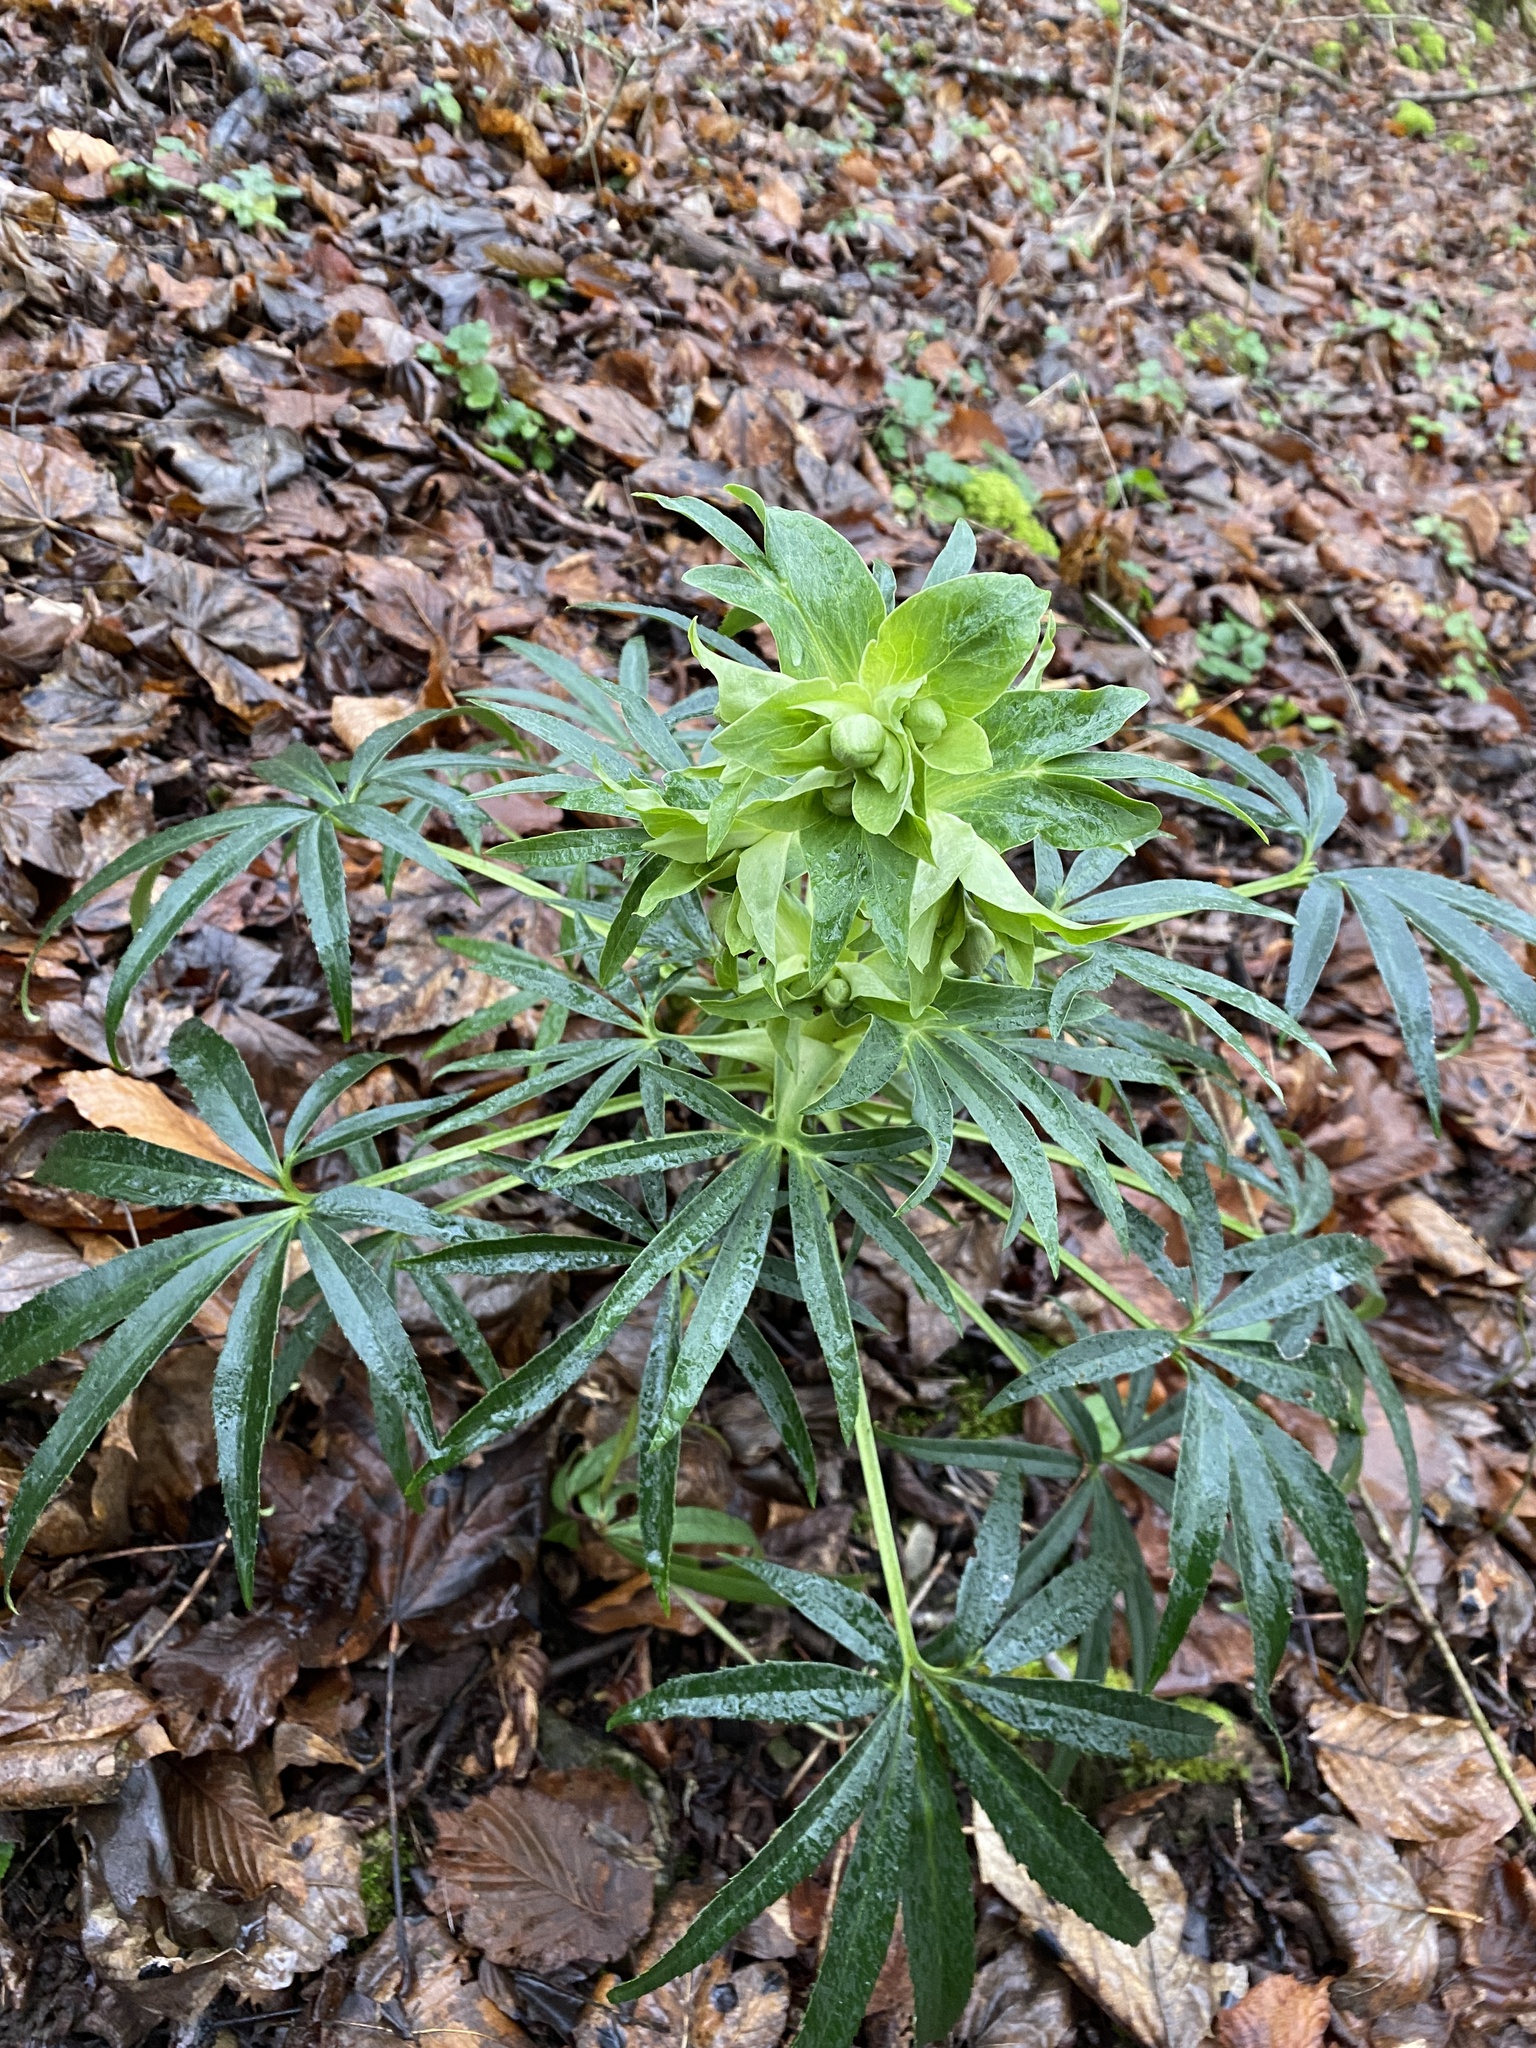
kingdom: Plantae
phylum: Tracheophyta
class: Magnoliopsida
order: Ranunculales
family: Ranunculaceae
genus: Helleborus
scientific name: Helleborus foetidus
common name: Stinking hellebore
